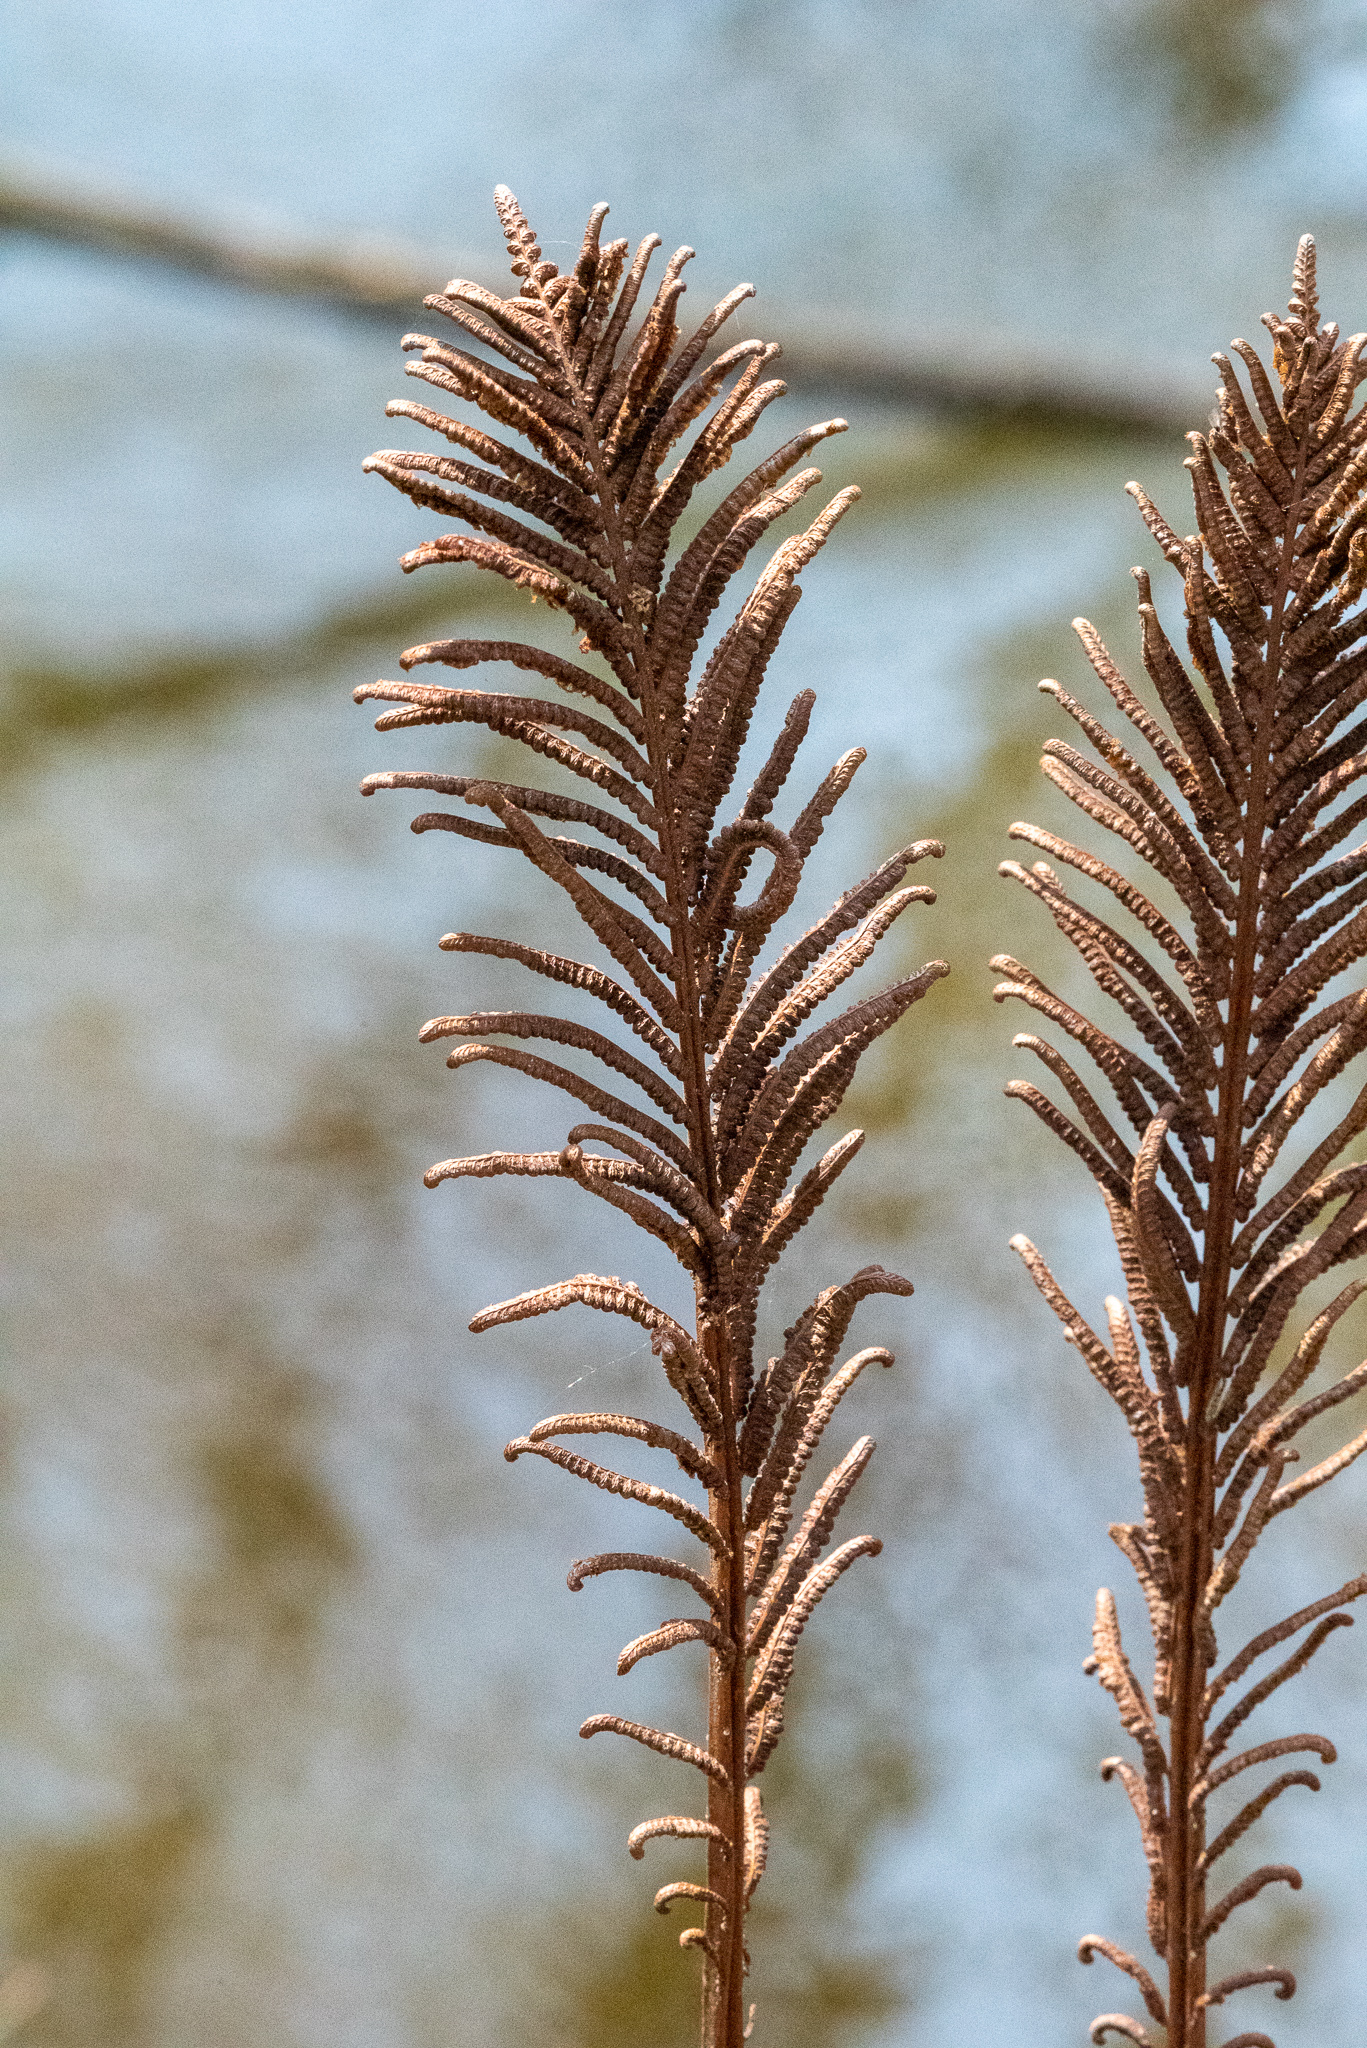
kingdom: Plantae
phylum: Tracheophyta
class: Polypodiopsida
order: Polypodiales
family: Onocleaceae
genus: Matteuccia
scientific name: Matteuccia struthiopteris
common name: Ostrich fern
